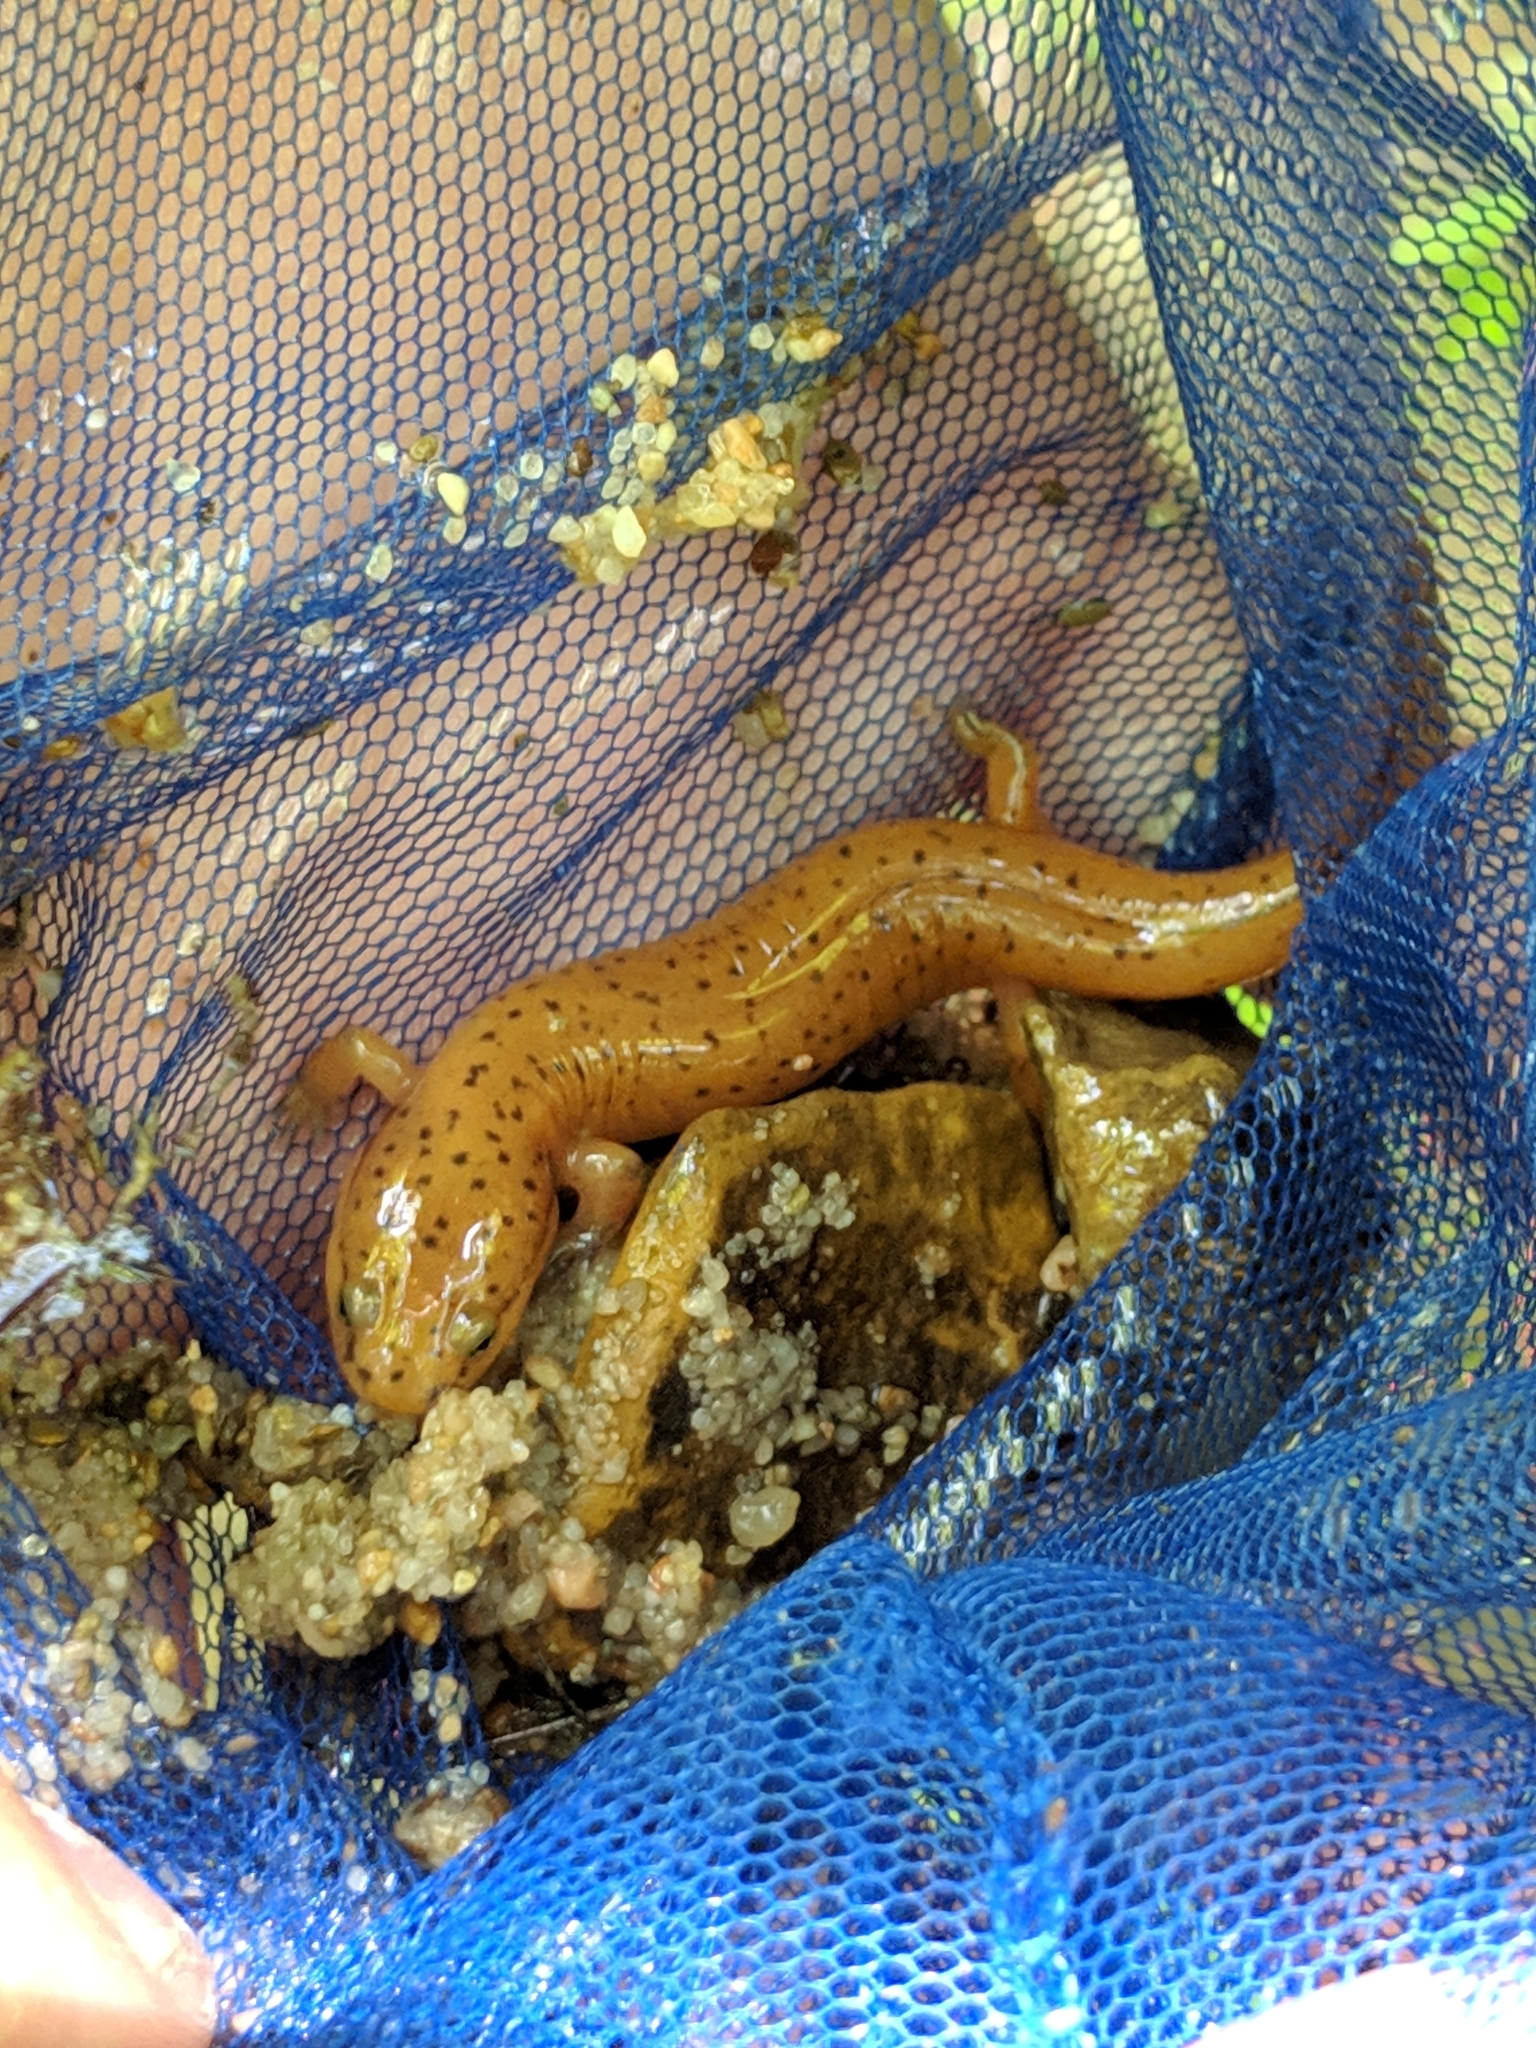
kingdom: Animalia
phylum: Chordata
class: Amphibia
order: Caudata
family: Plethodontidae
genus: Pseudotriton
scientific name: Pseudotriton ruber
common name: Red salamander
